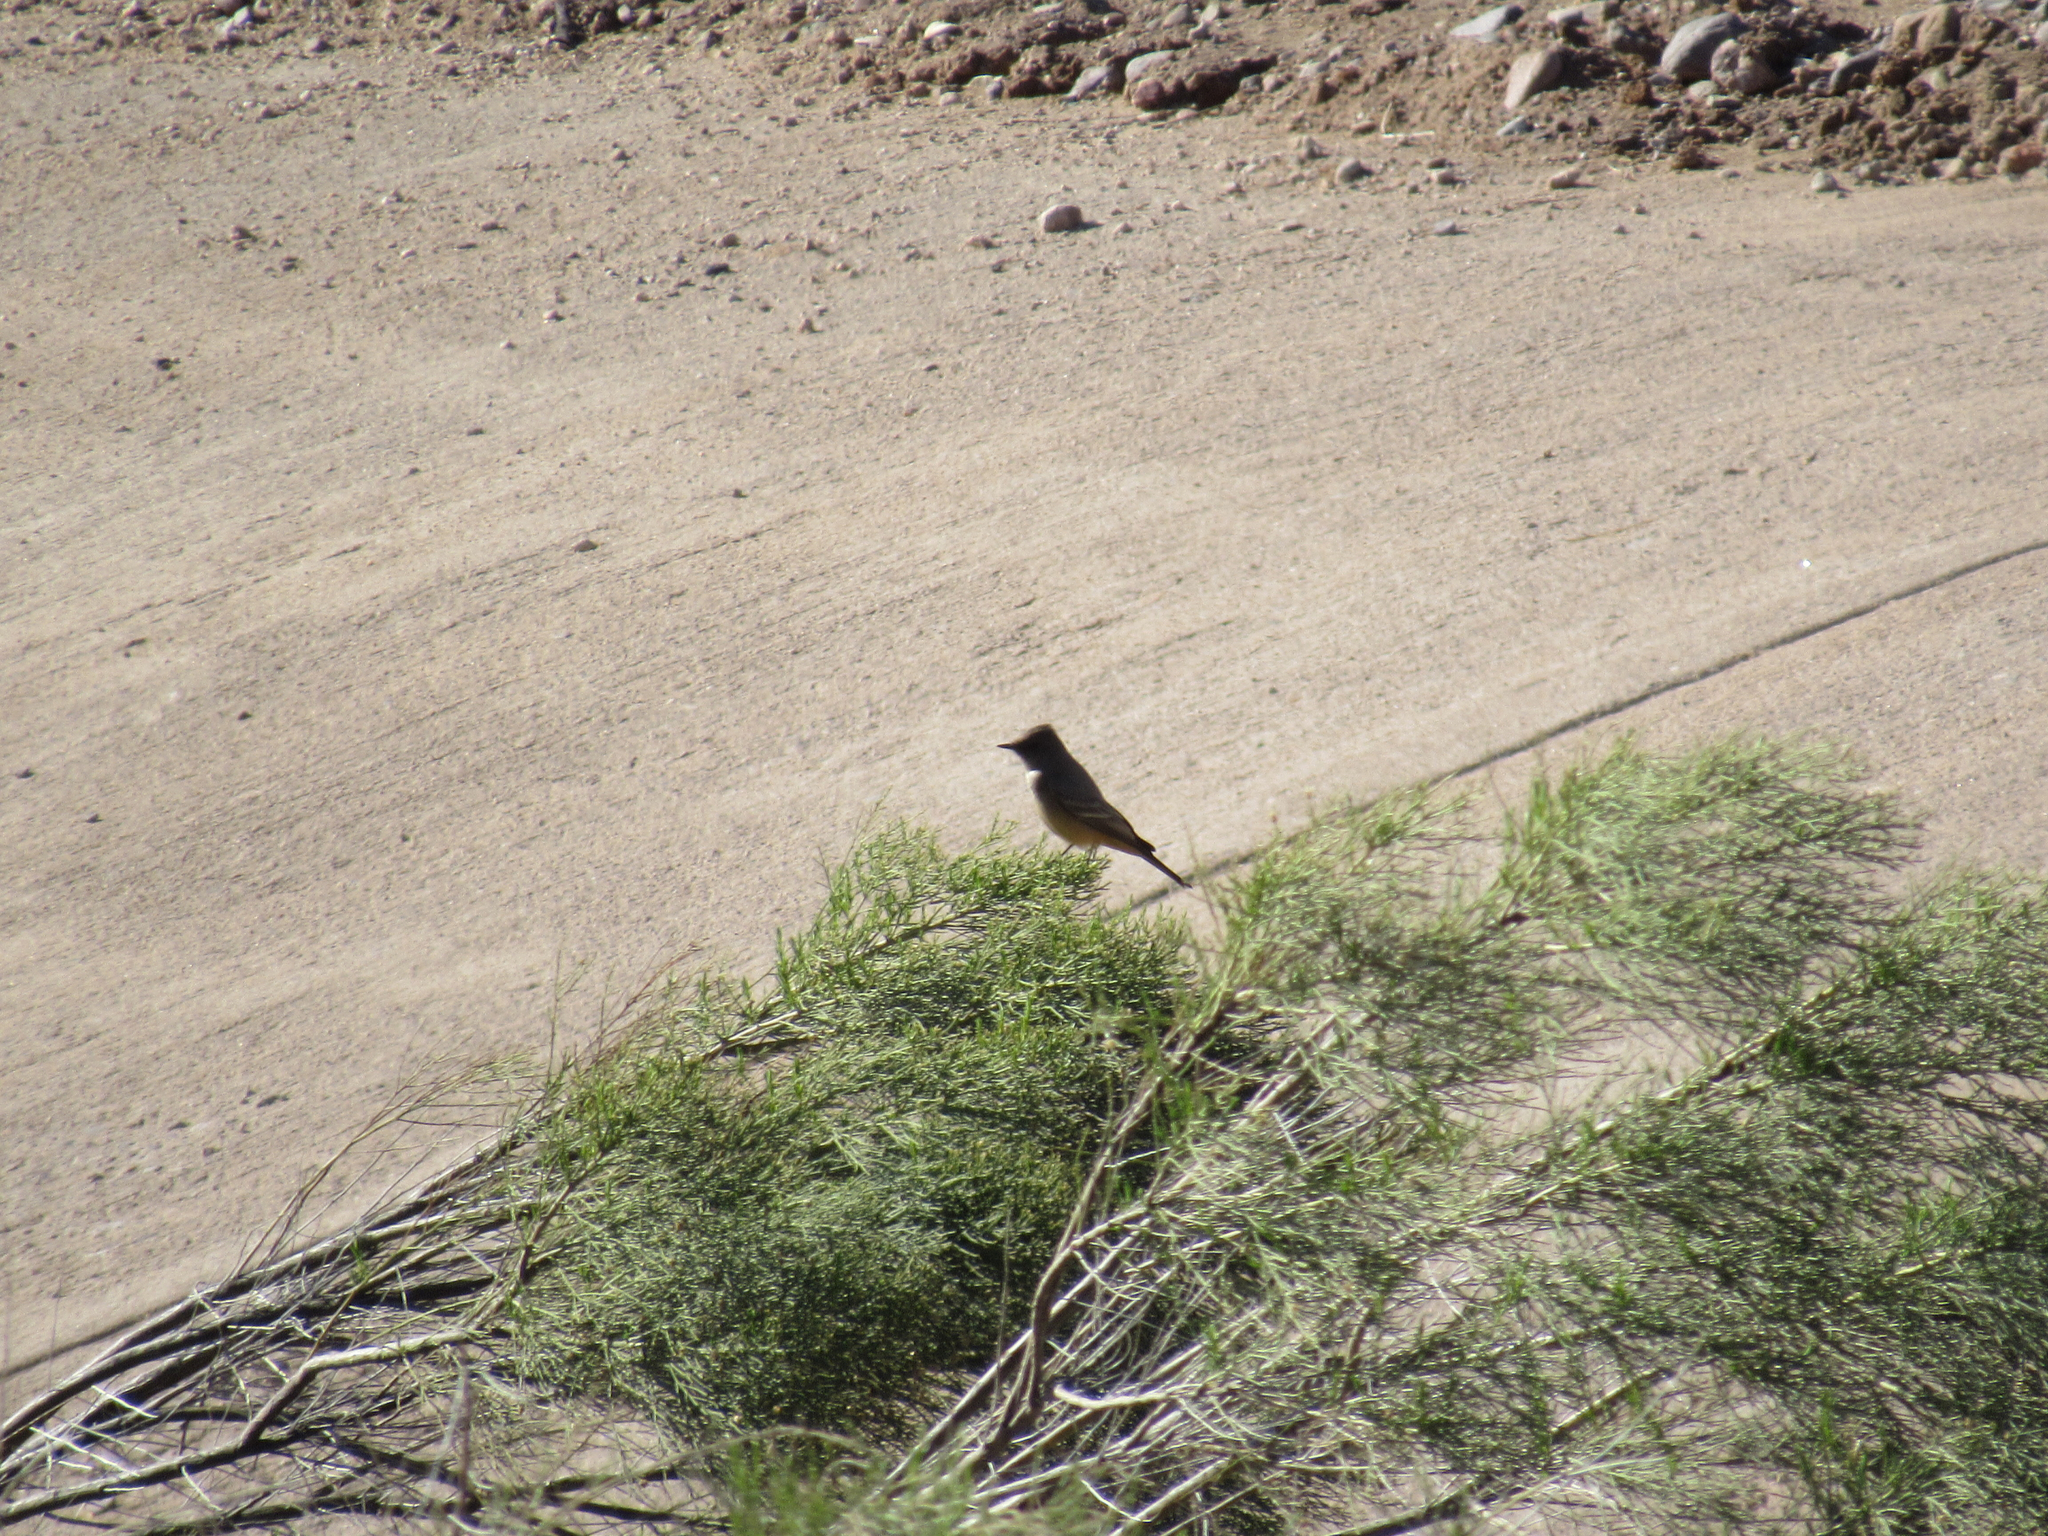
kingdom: Animalia
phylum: Chordata
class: Aves
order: Passeriformes
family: Tyrannidae
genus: Sayornis
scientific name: Sayornis saya
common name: Say's phoebe
